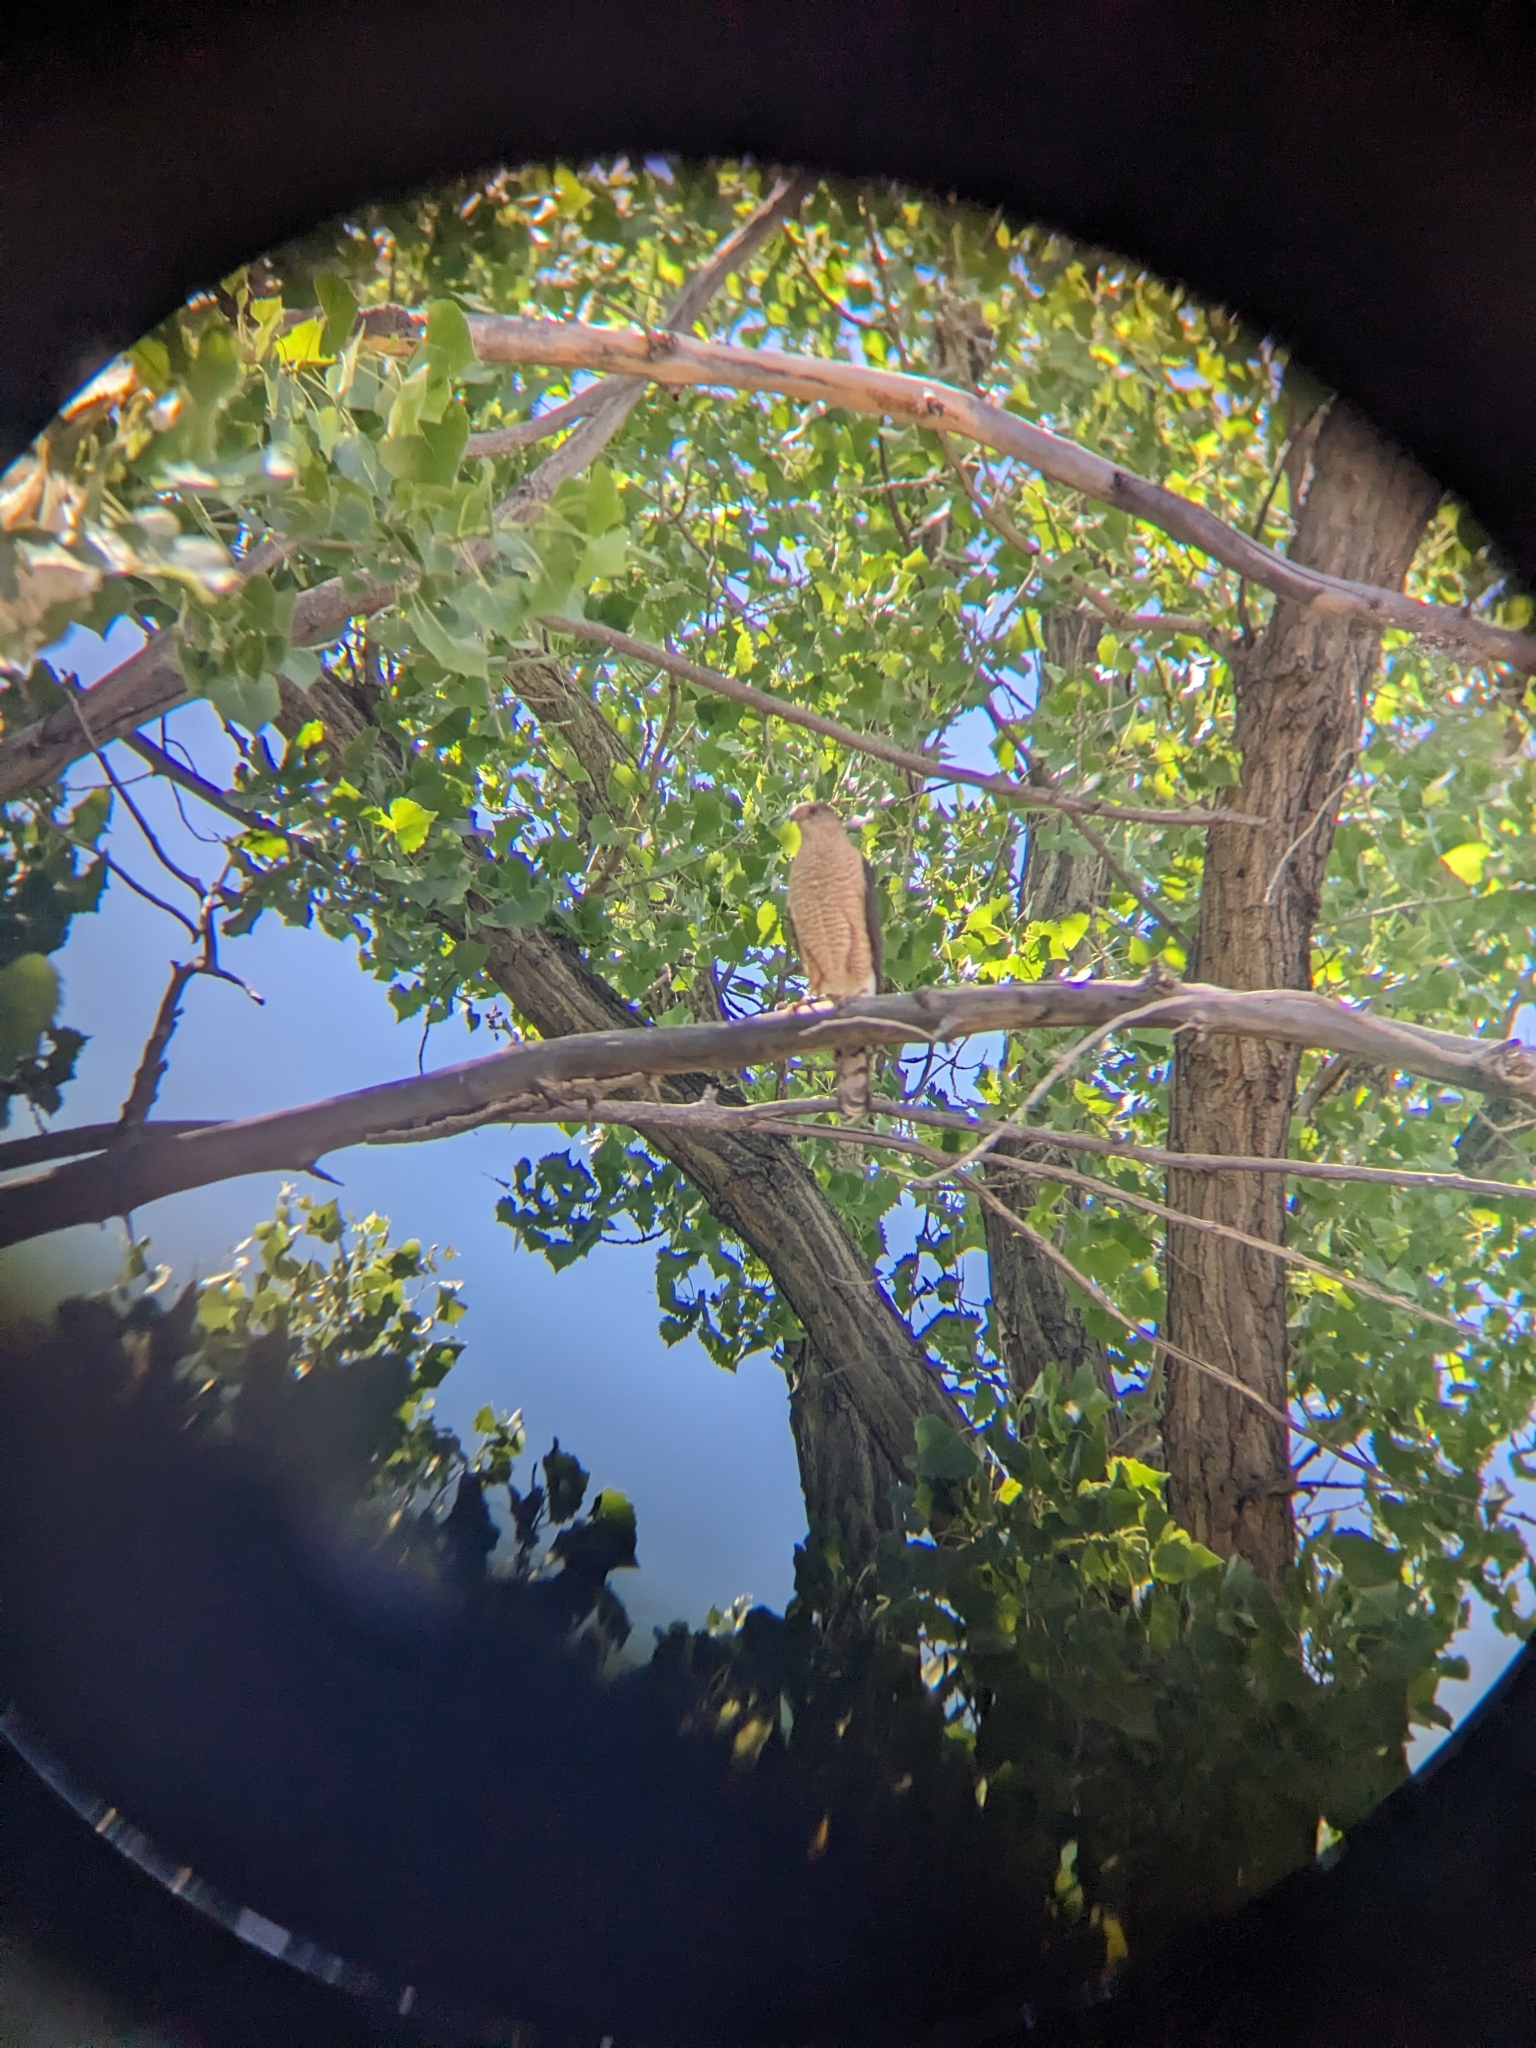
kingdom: Animalia
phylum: Chordata
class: Aves
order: Accipitriformes
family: Accipitridae
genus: Accipiter
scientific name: Accipiter cooperii
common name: Cooper's hawk
